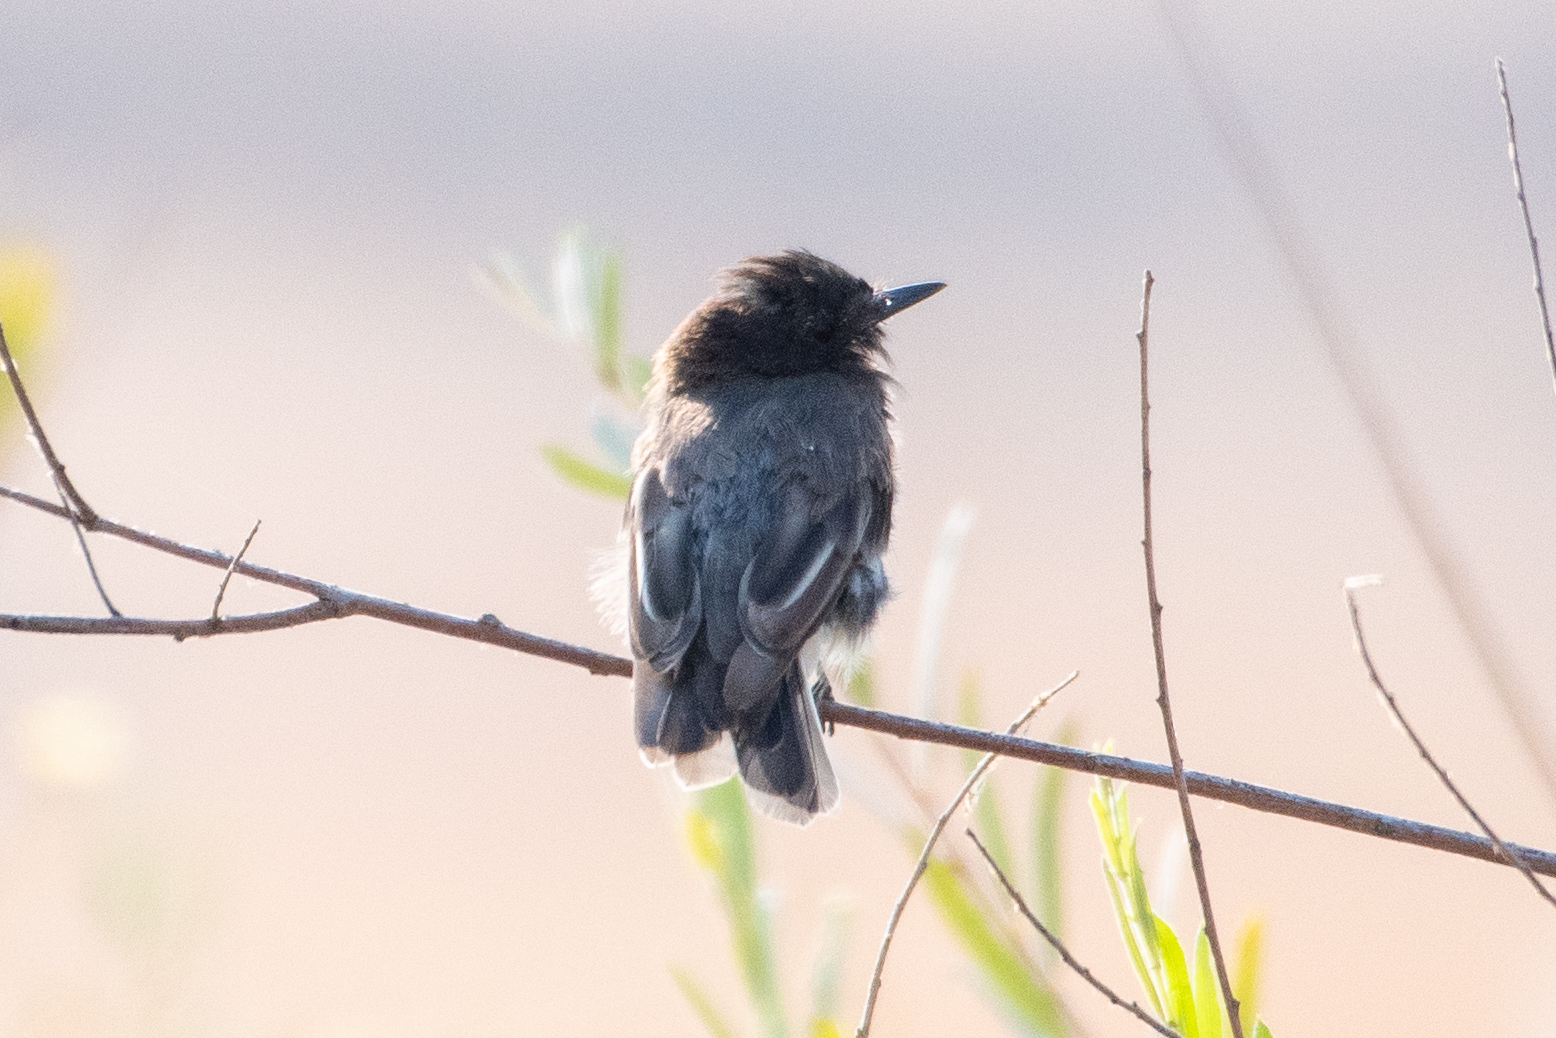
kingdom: Animalia
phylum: Chordata
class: Aves
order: Passeriformes
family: Tyrannidae
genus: Sayornis
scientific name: Sayornis nigricans
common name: Black phoebe
